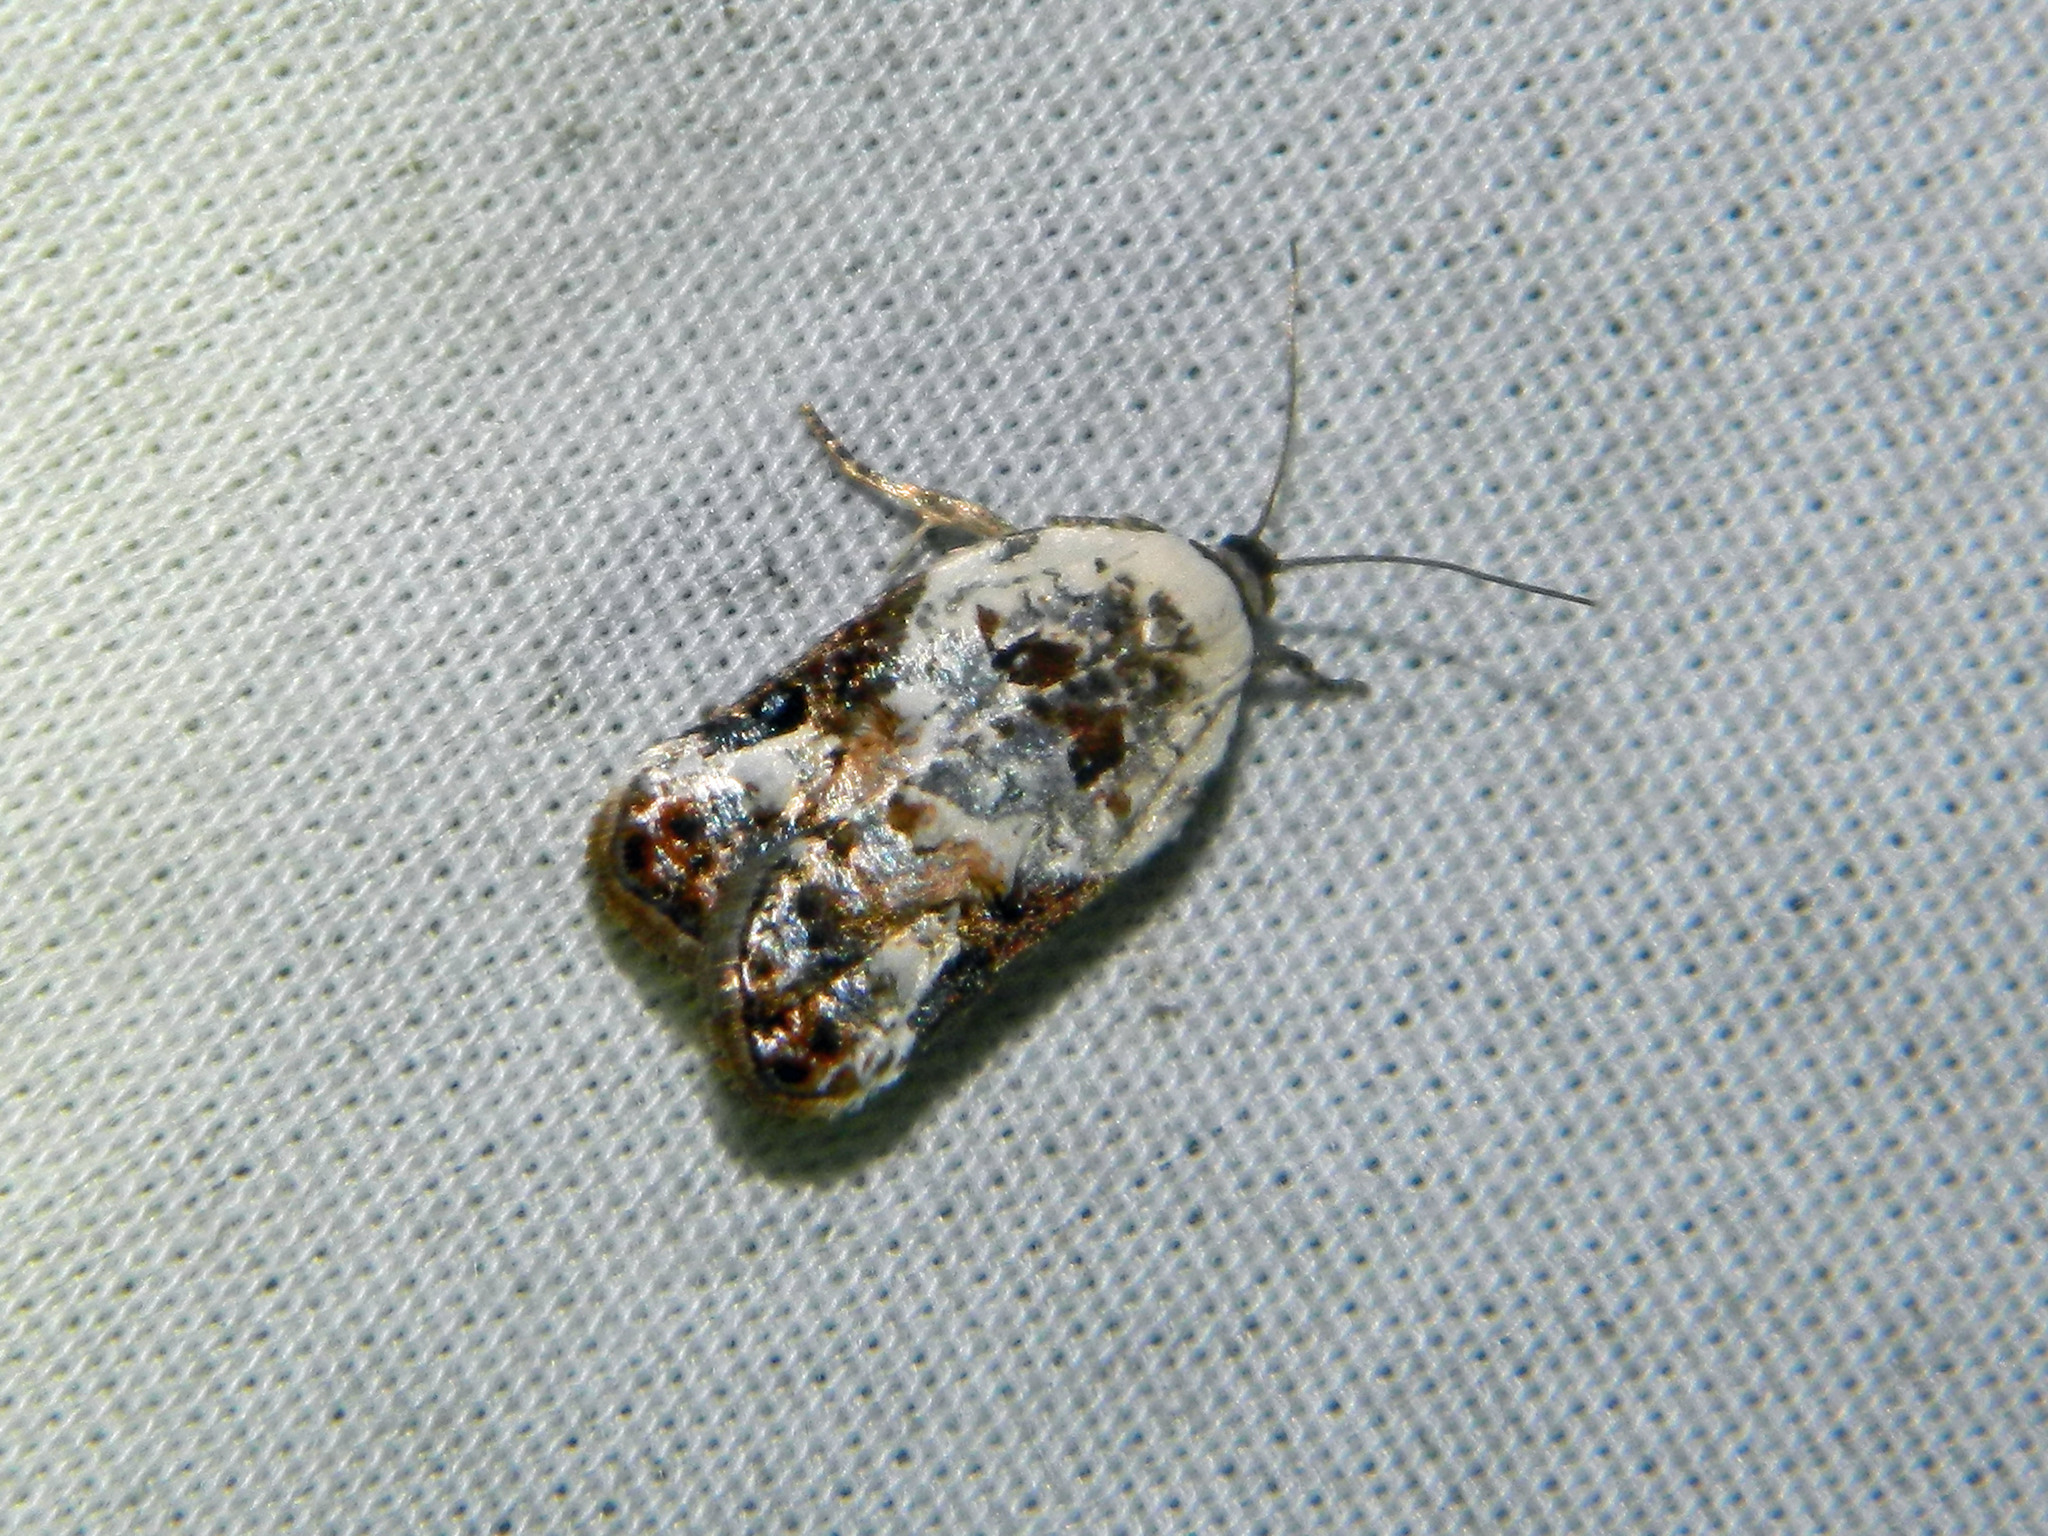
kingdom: Animalia
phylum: Arthropoda
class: Insecta
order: Lepidoptera
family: Tortricidae
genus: Acleris
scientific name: Acleris nivisellana
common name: Snowy-shouldered acleris moth
